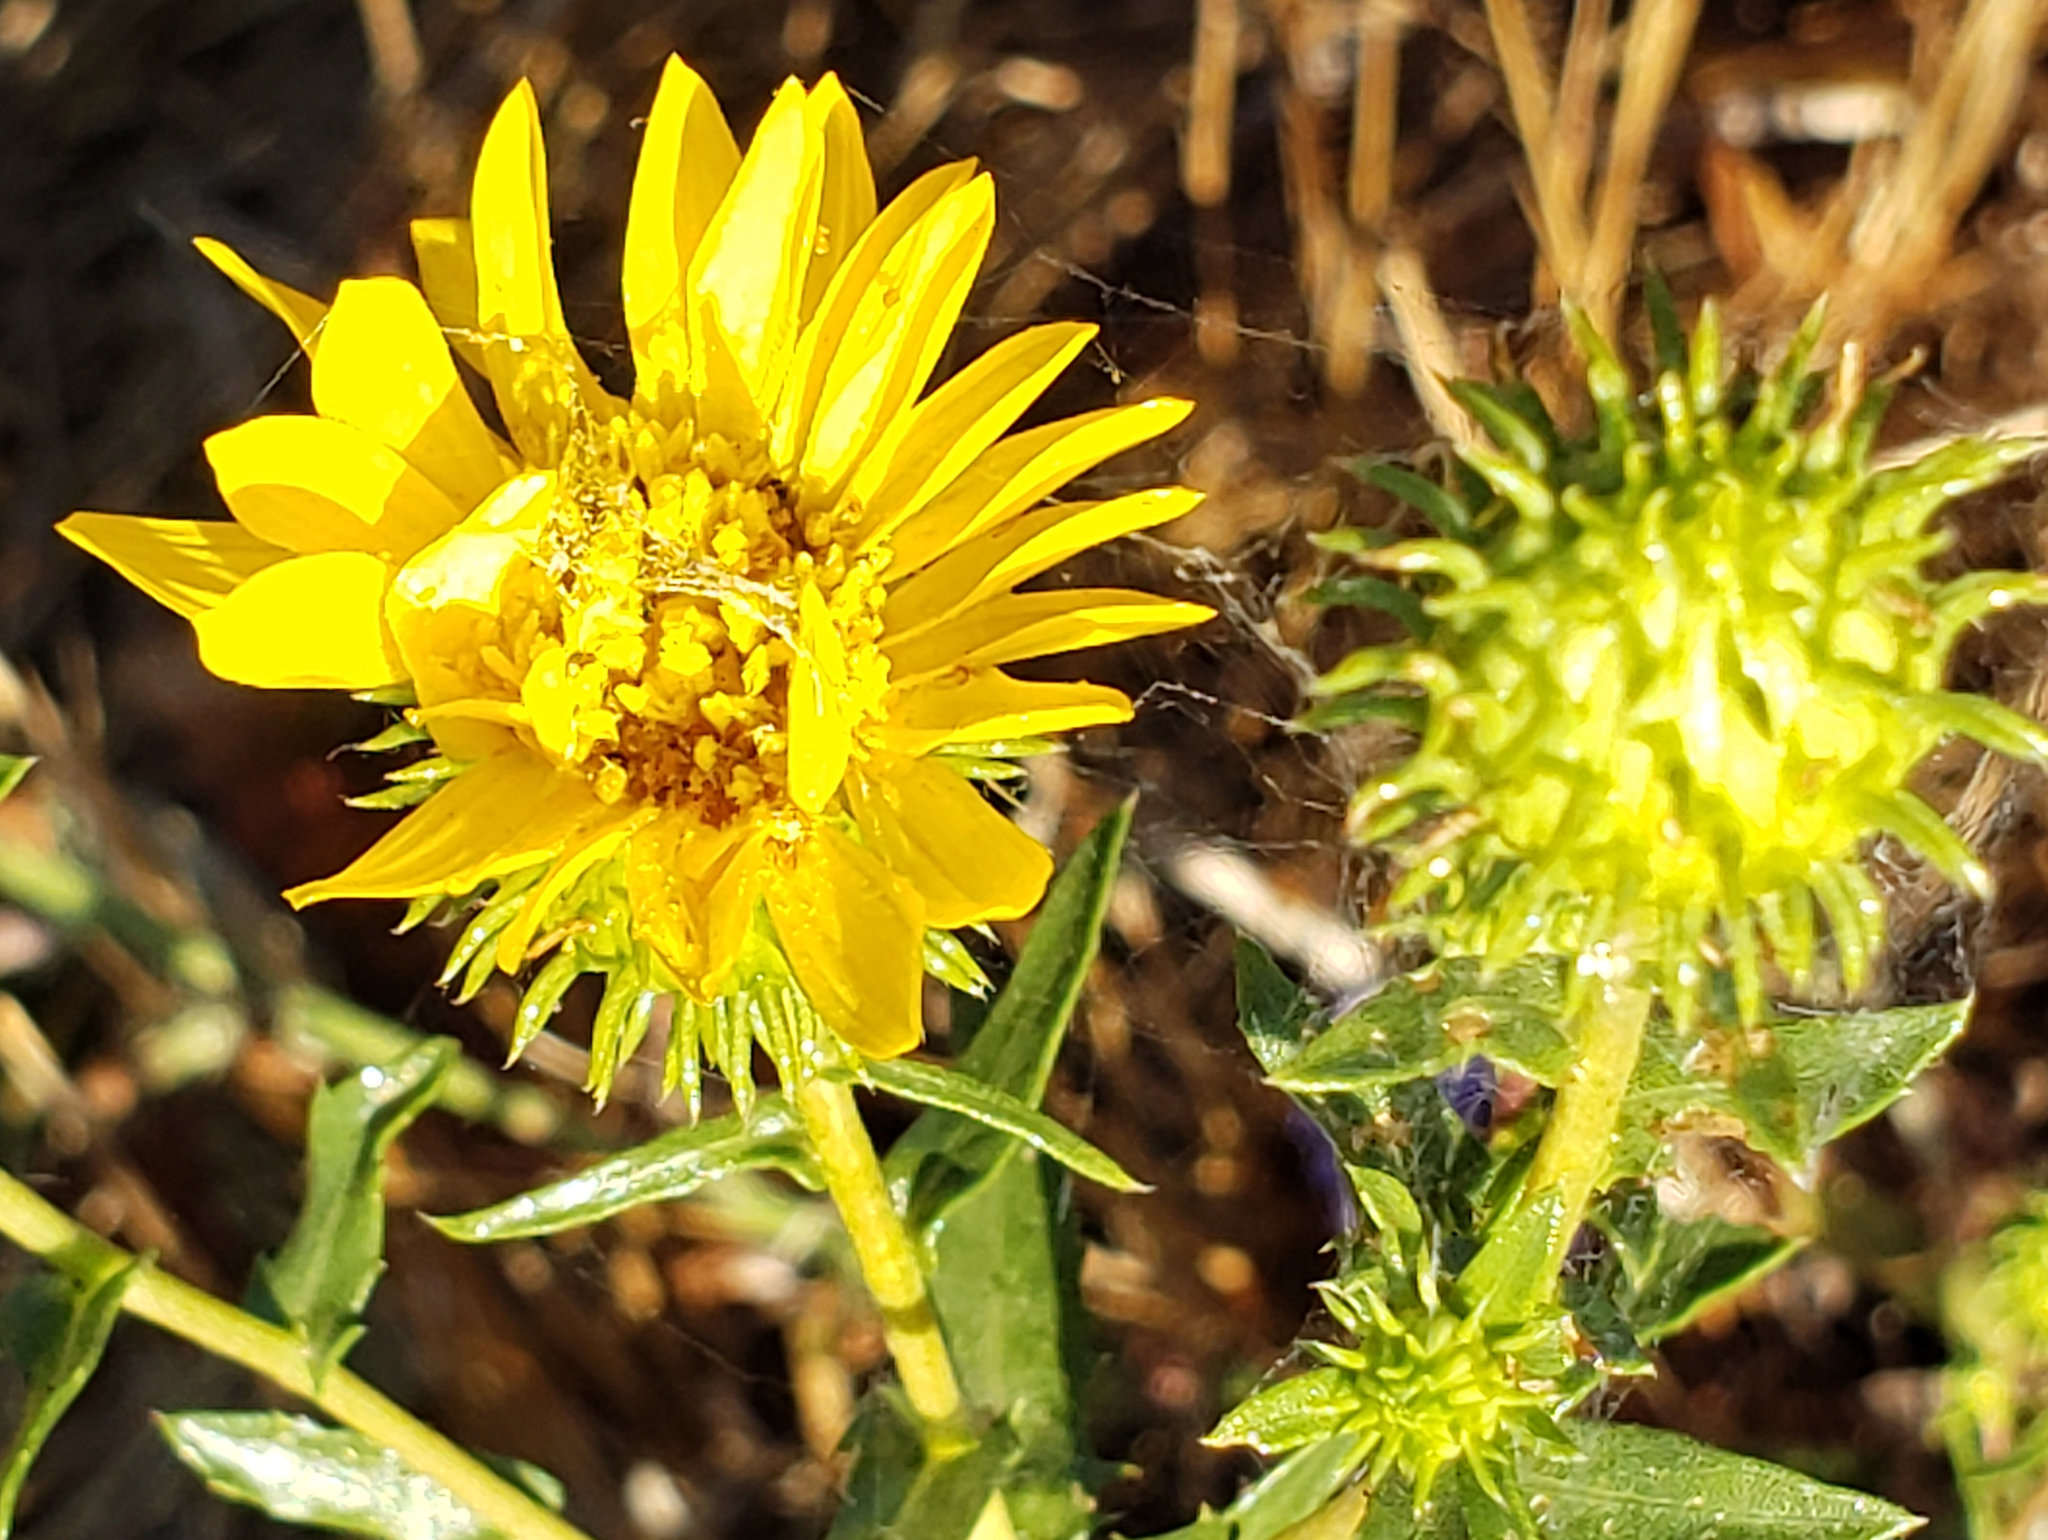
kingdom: Plantae
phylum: Tracheophyta
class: Magnoliopsida
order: Asterales
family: Asteraceae
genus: Grindelia
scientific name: Grindelia hirsutula
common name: Hairy gumweed
